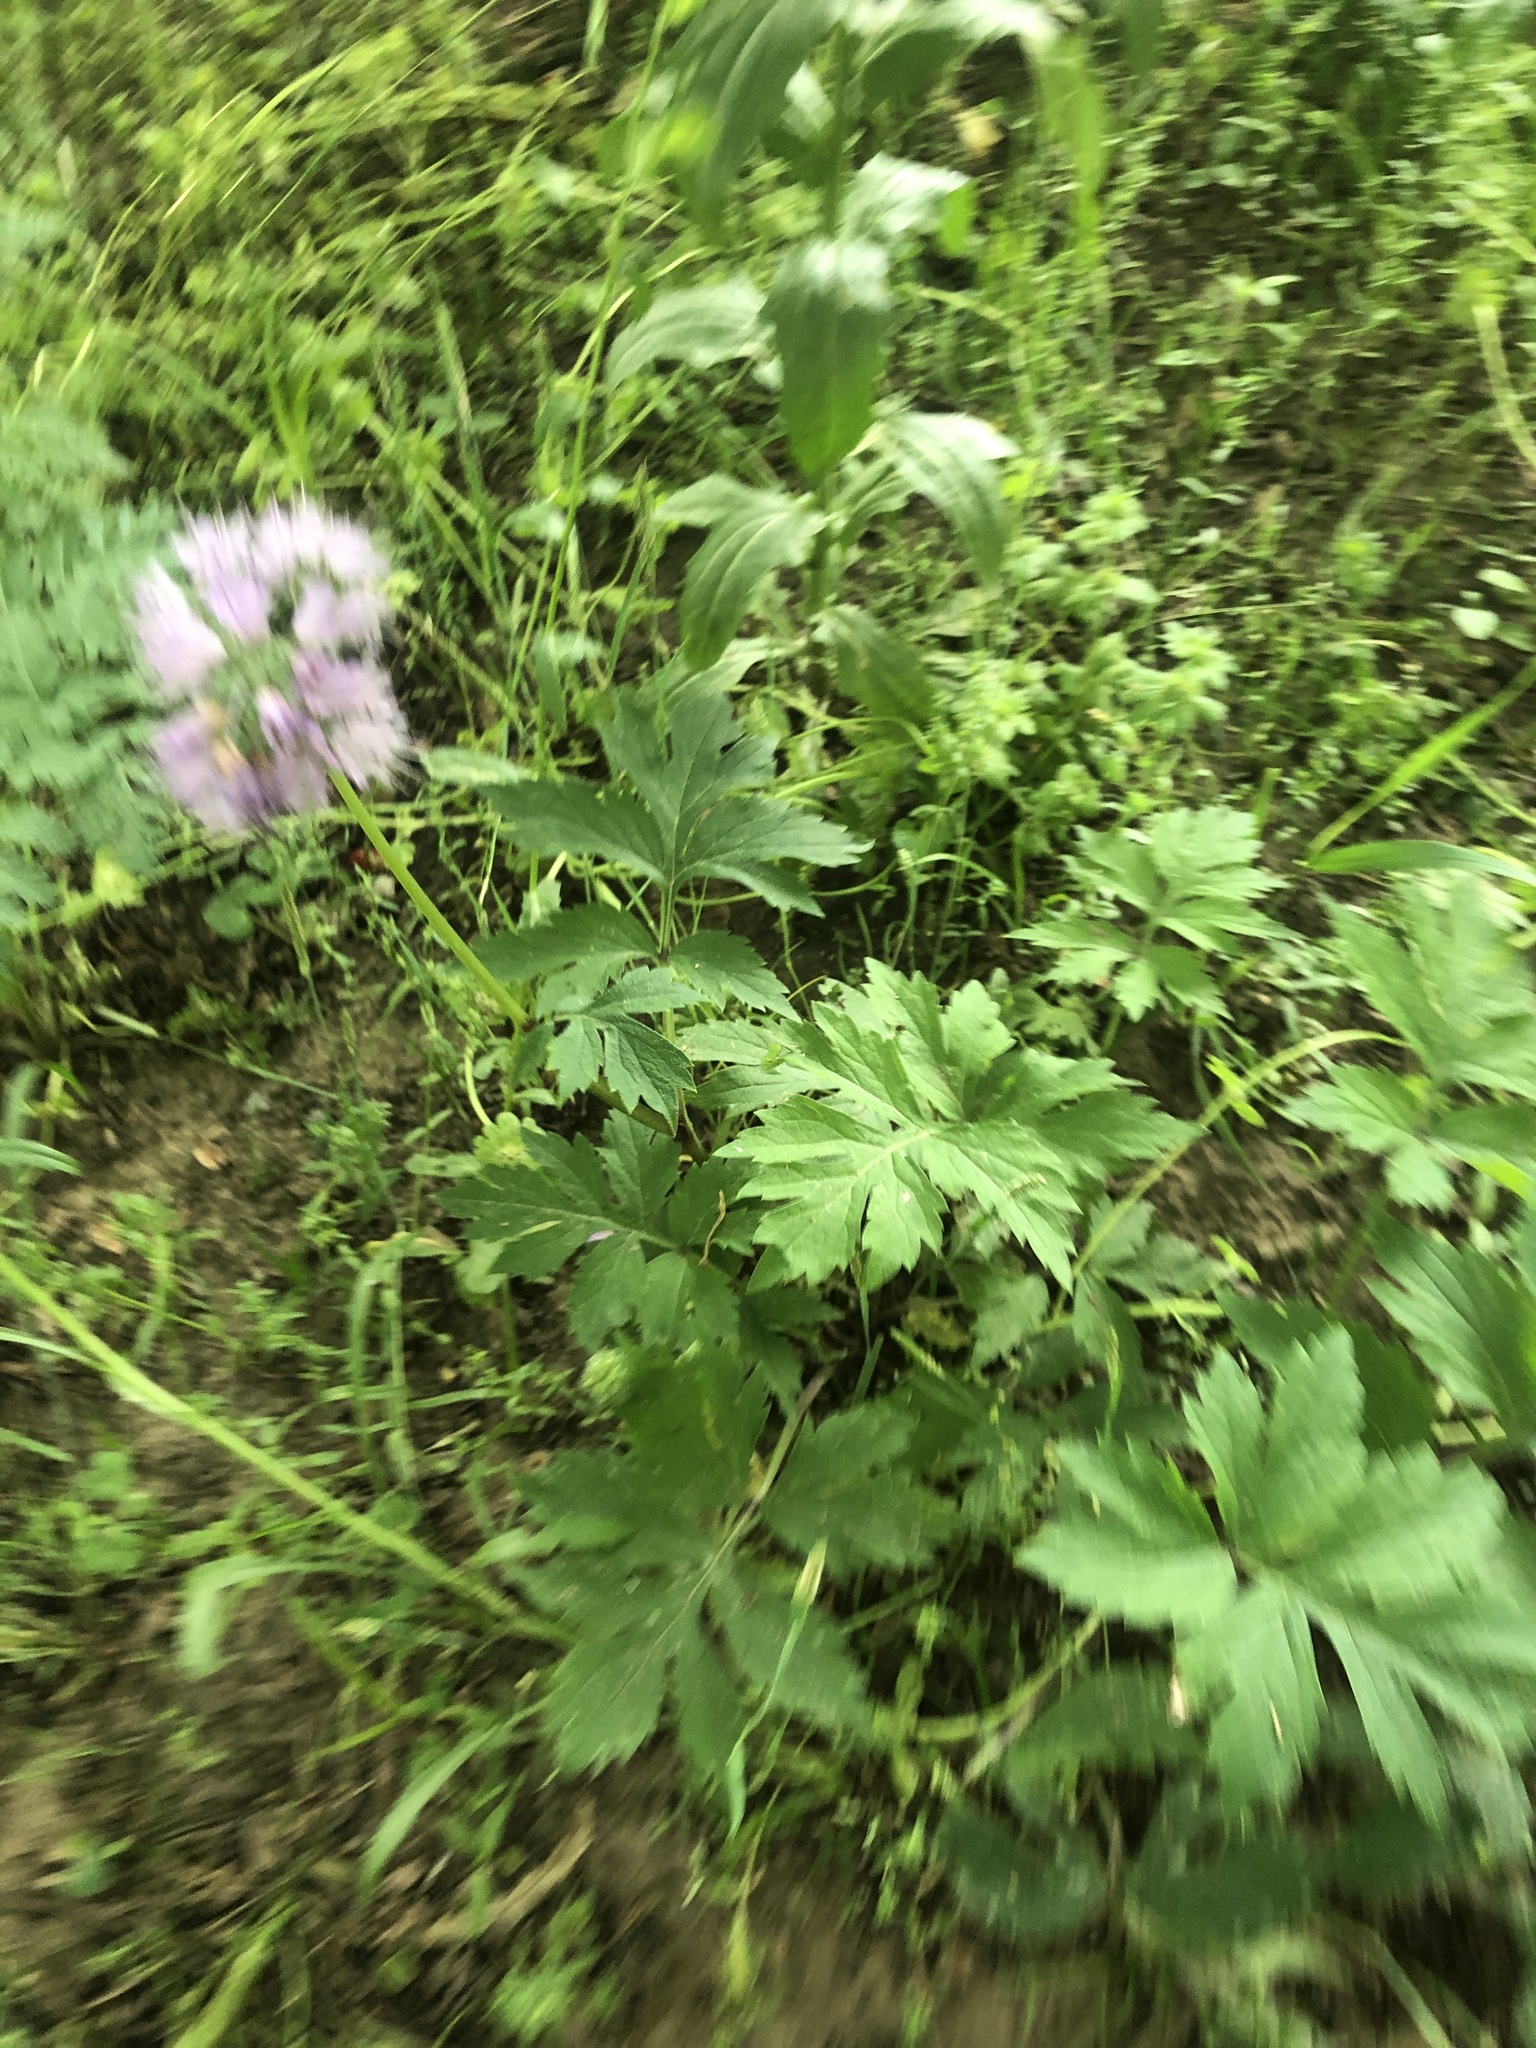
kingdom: Plantae
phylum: Tracheophyta
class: Magnoliopsida
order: Boraginales
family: Hydrophyllaceae
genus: Hydrophyllum
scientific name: Hydrophyllum virginianum
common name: Virginia waterleaf
